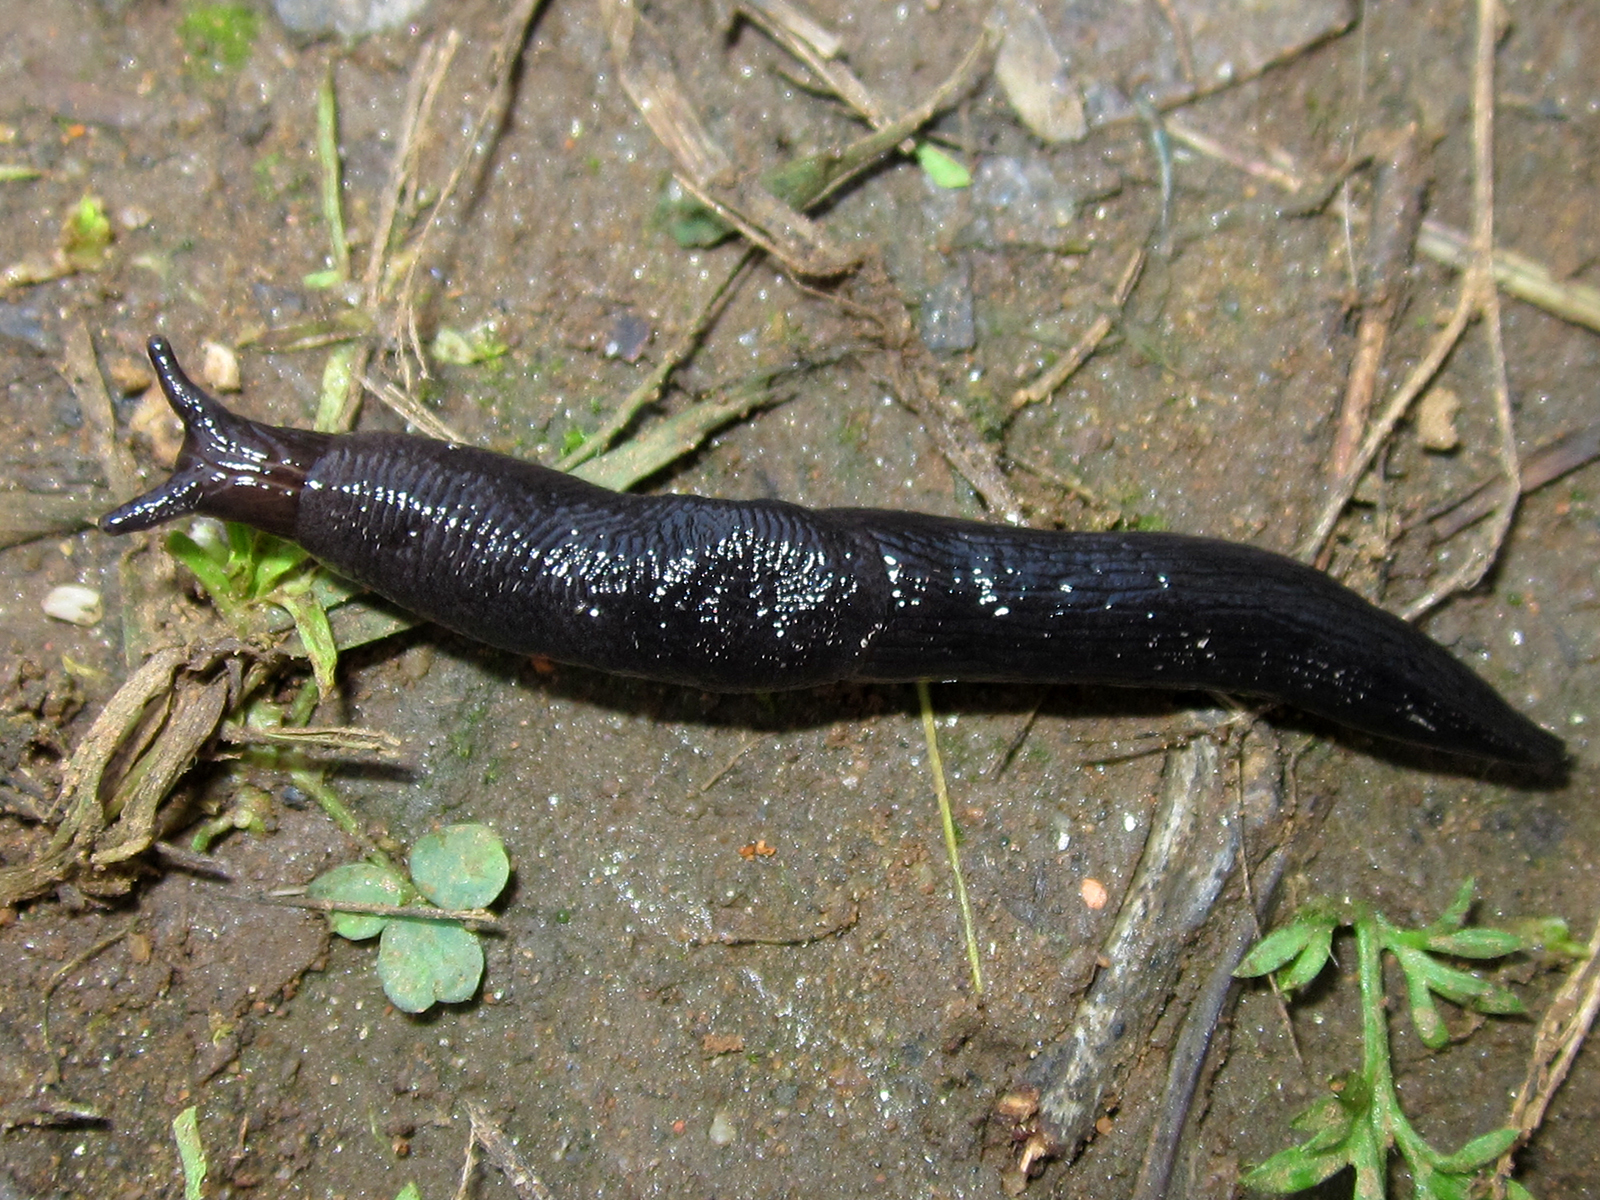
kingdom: Animalia
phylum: Mollusca
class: Gastropoda
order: Stylommatophora
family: Agriolimacidae
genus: Deroceras
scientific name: Deroceras laeve
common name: Marsh slug
